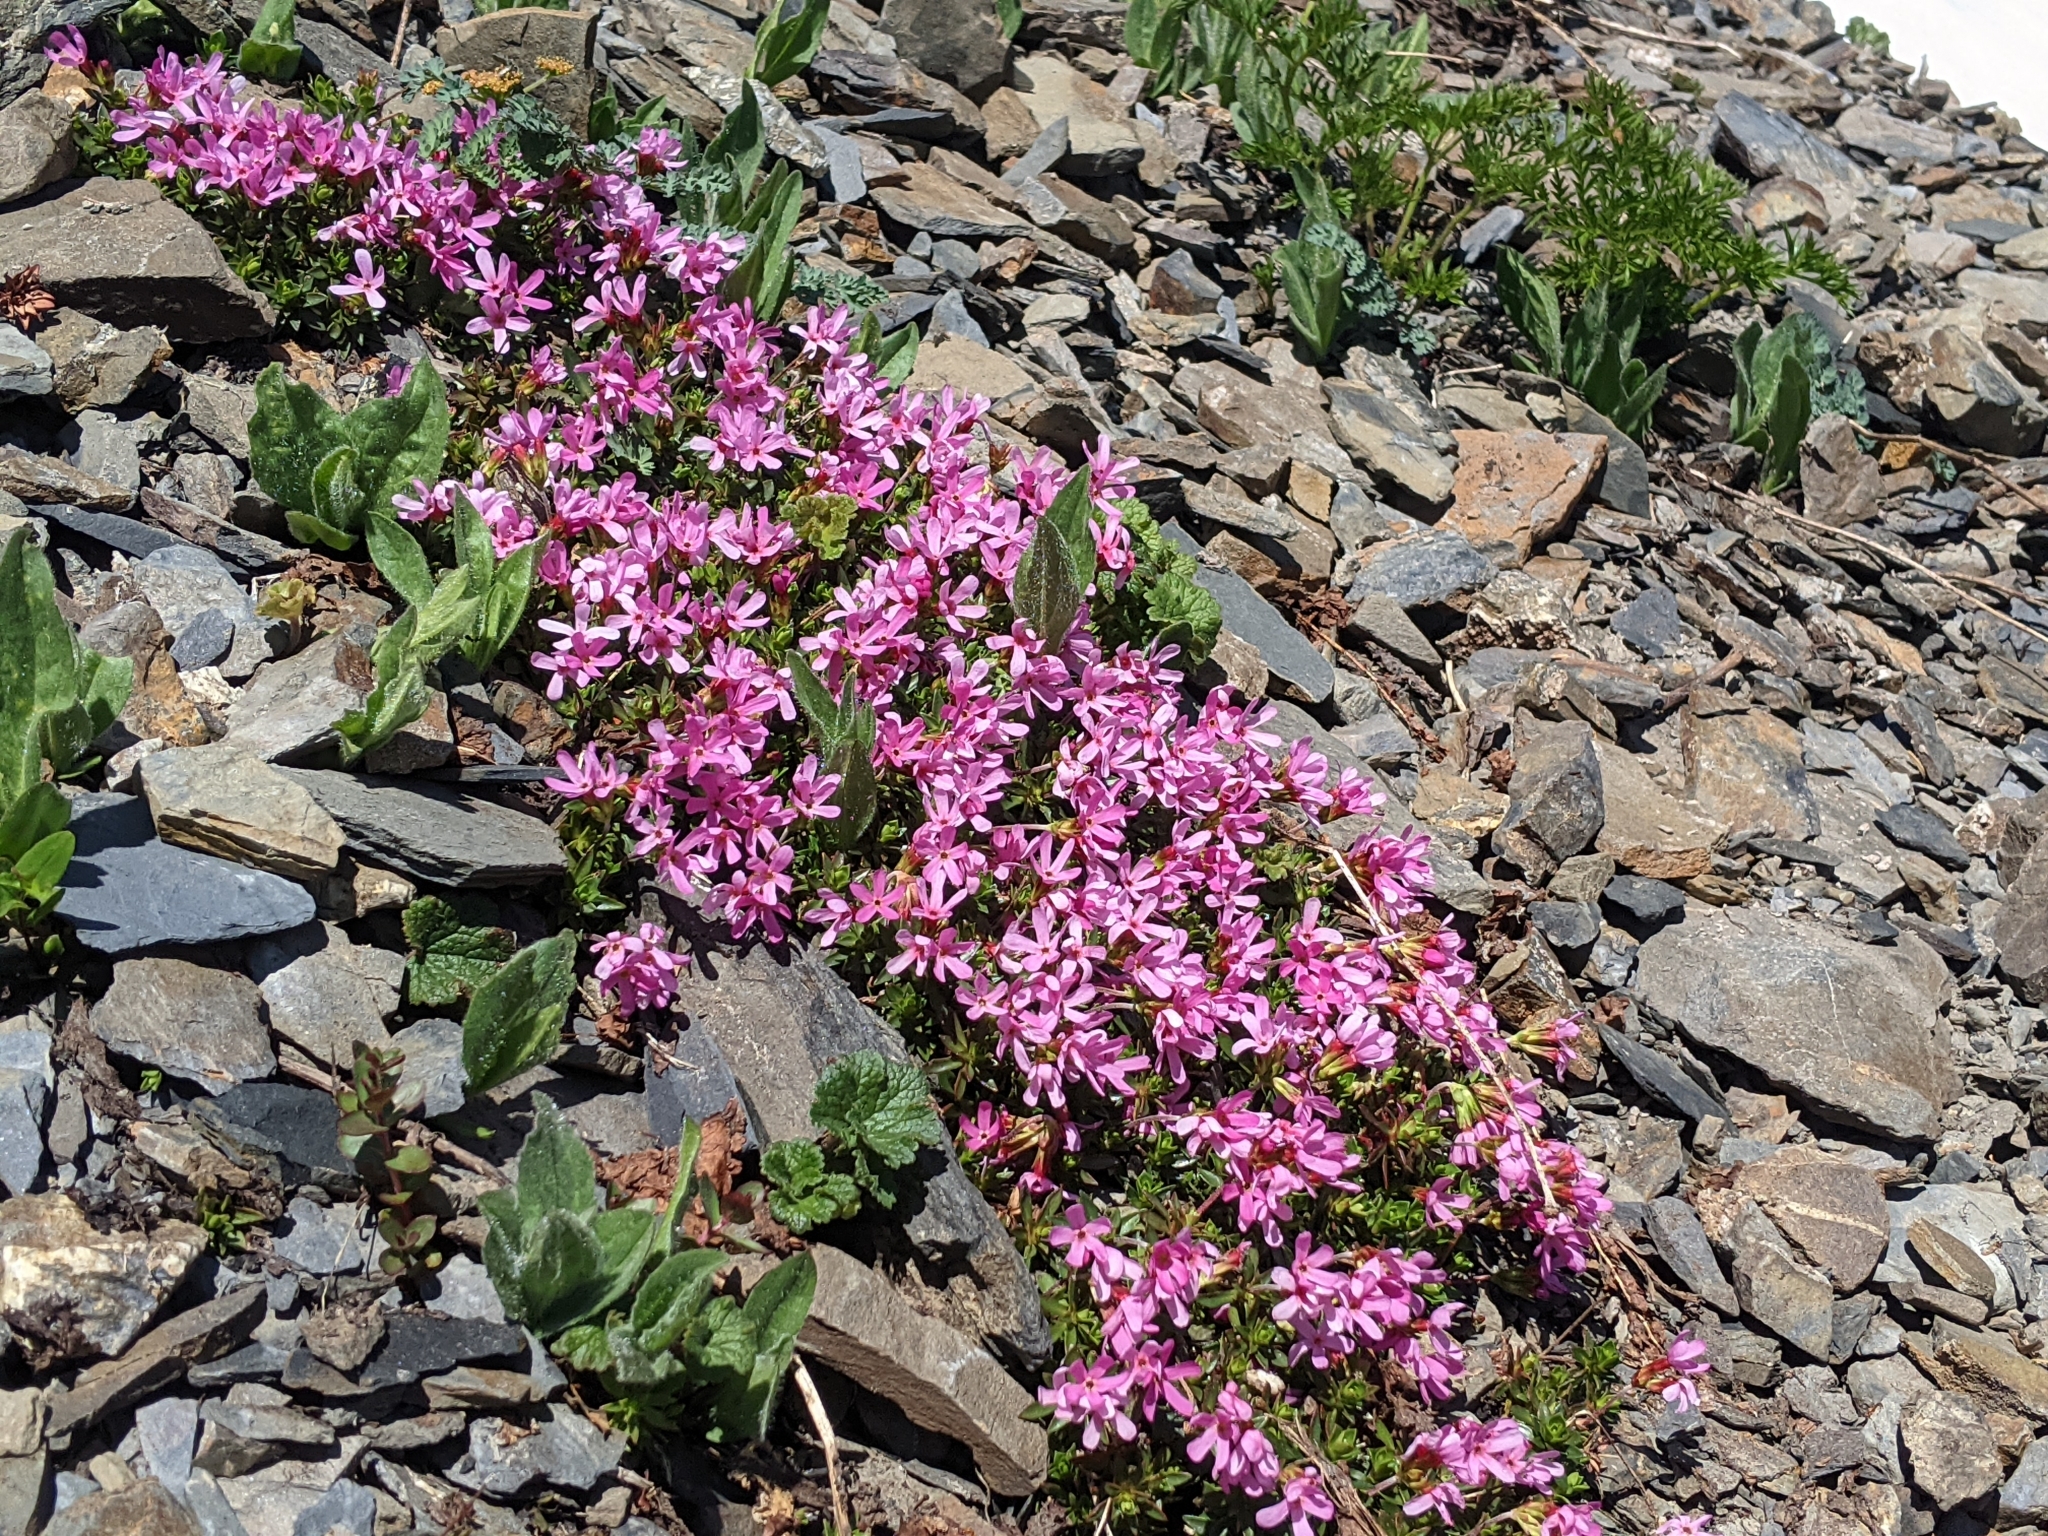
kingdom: Plantae
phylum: Tracheophyta
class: Magnoliopsida
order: Ericales
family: Primulaceae
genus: Androsace
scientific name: Androsace laevigata
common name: Cliff dwarf-primrose
